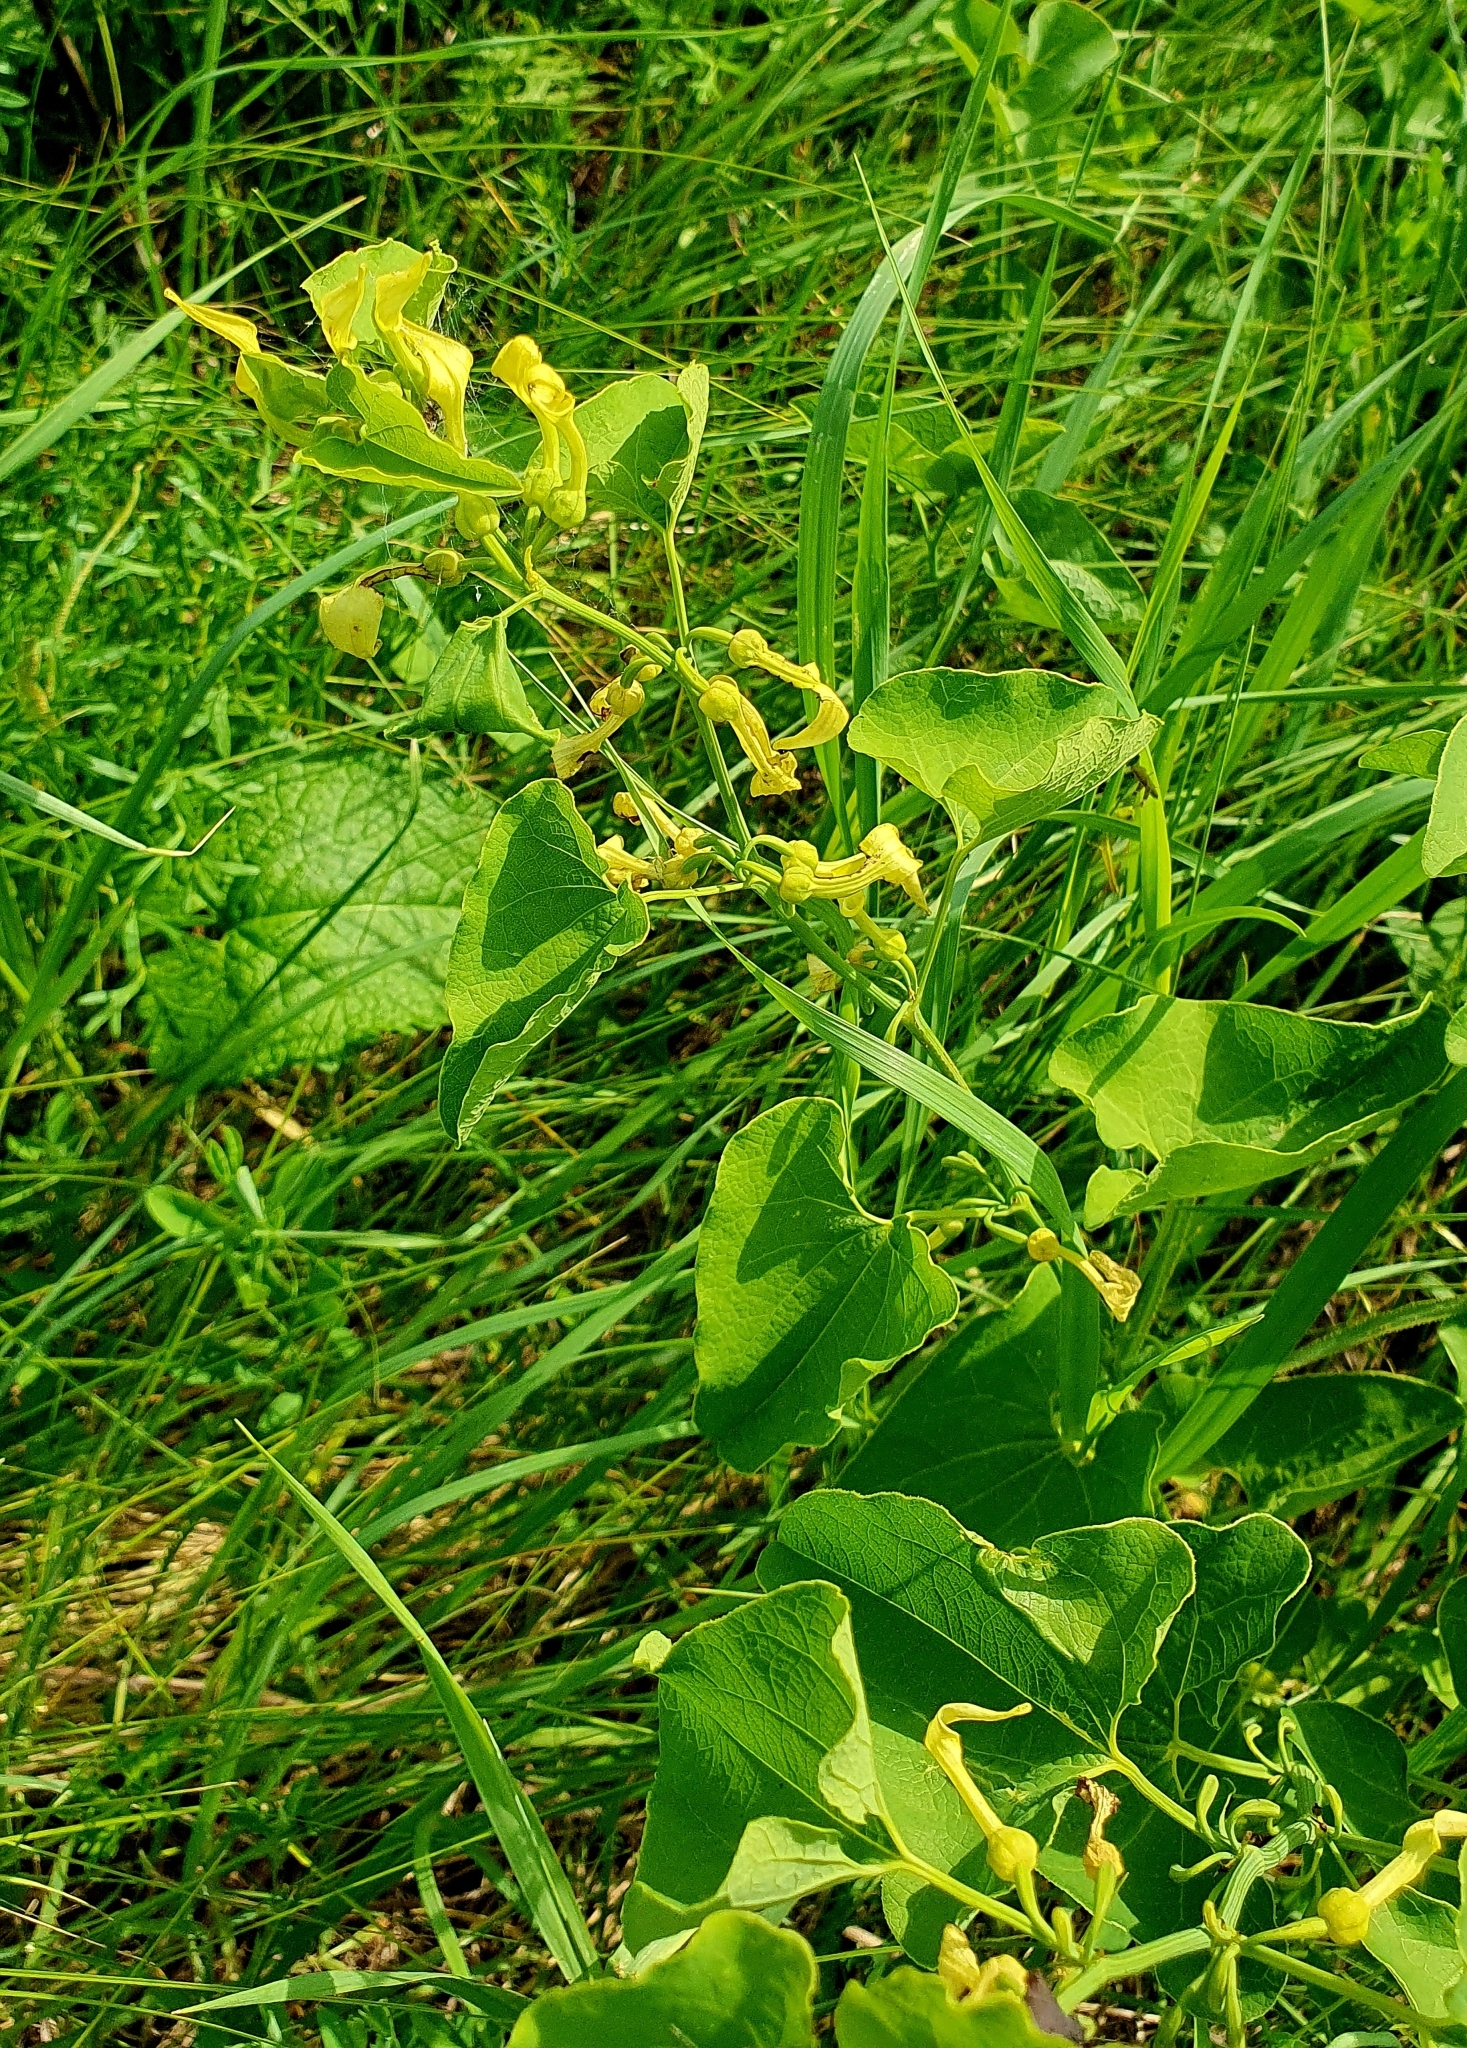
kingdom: Plantae
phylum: Tracheophyta
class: Magnoliopsida
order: Piperales
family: Aristolochiaceae
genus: Aristolochia
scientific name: Aristolochia clematitis
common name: Birthwort
